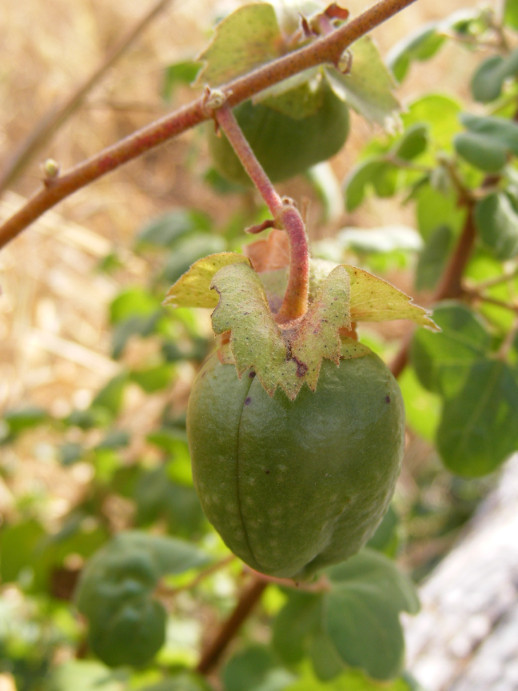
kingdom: Plantae
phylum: Tracheophyta
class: Magnoliopsida
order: Malvales
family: Malvaceae
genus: Gossypium
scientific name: Gossypium herbaceum
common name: Levant cotton
